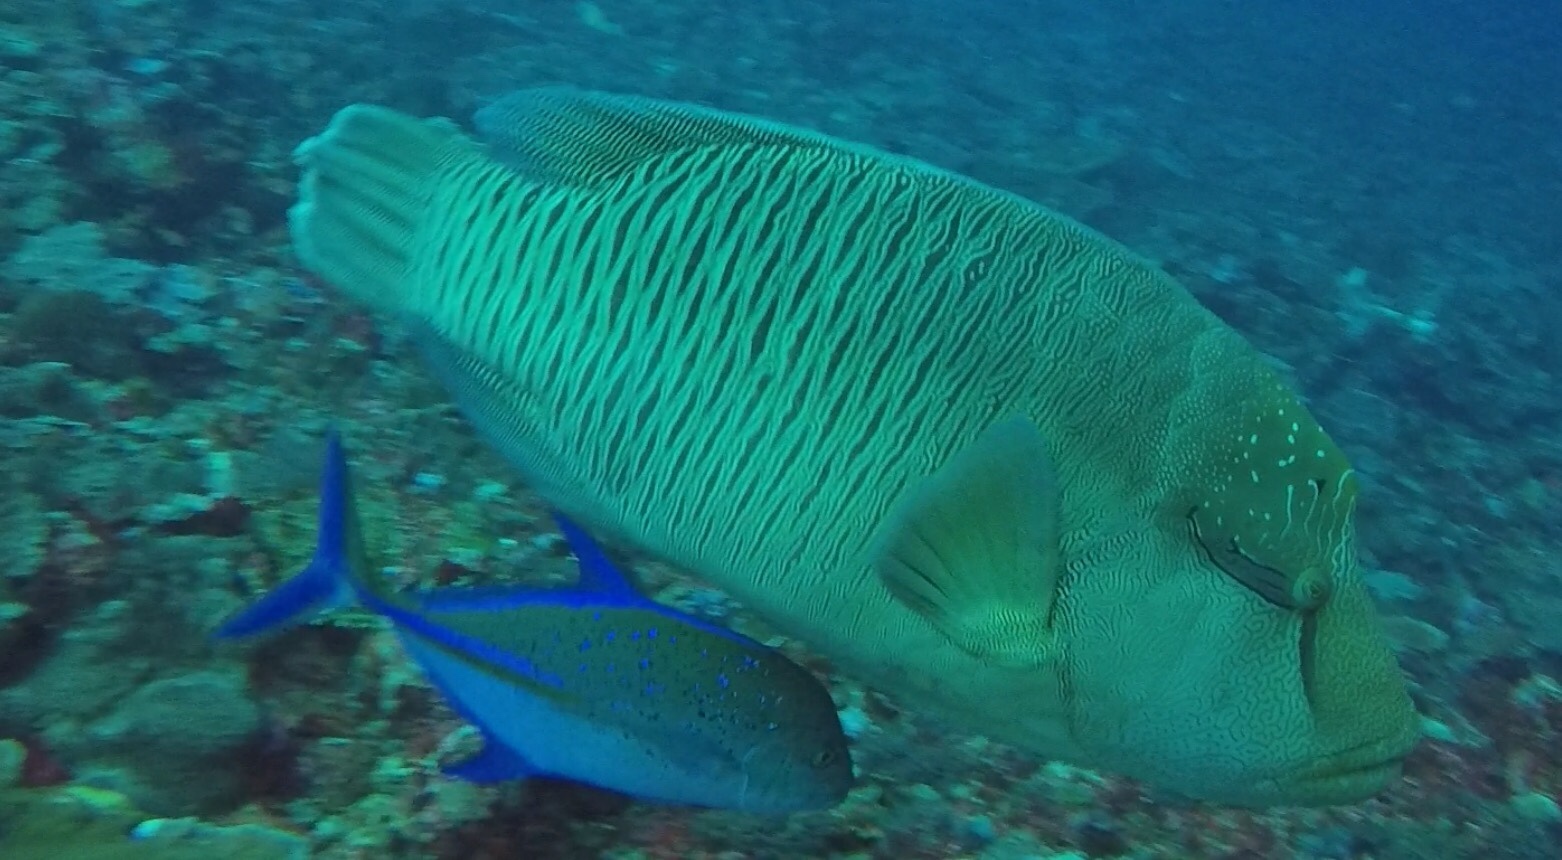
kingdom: Animalia
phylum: Chordata
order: Perciformes
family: Labridae
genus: Cheilinus
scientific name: Cheilinus undulatus
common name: Humphead wrasse
